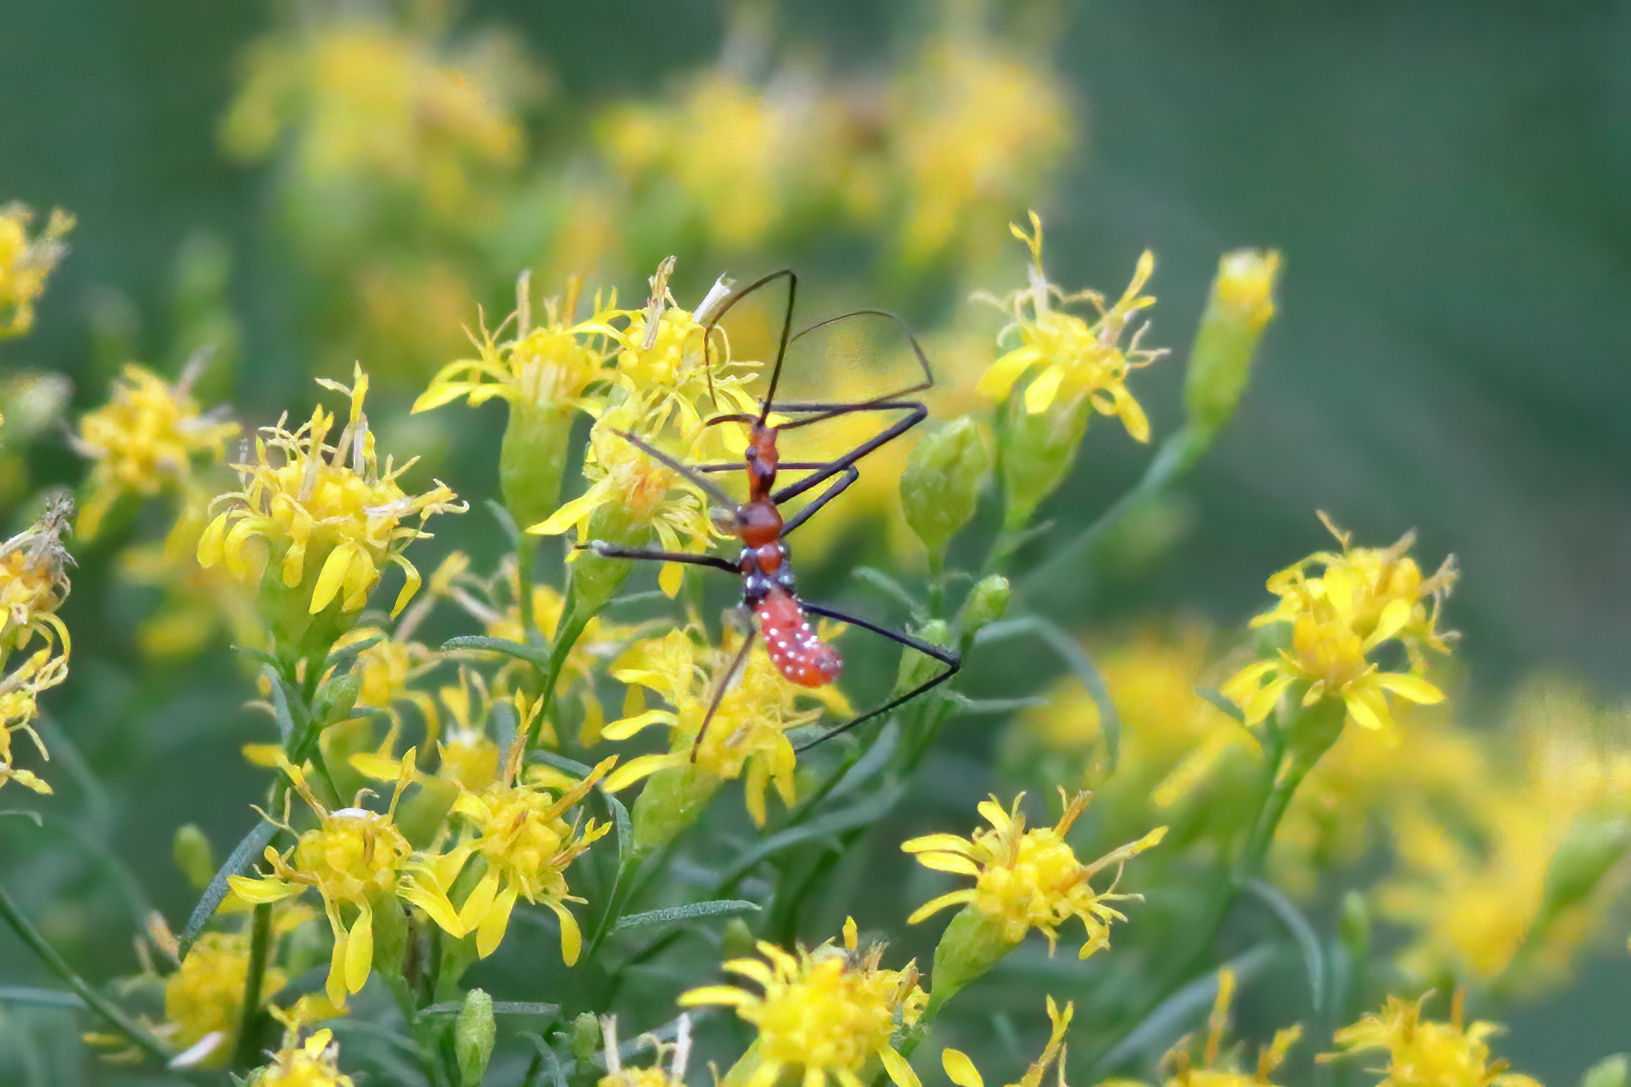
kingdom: Animalia
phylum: Arthropoda
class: Insecta
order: Hemiptera
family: Reduviidae
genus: Zelus
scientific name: Zelus longipes
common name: Milkweed assassin bug
